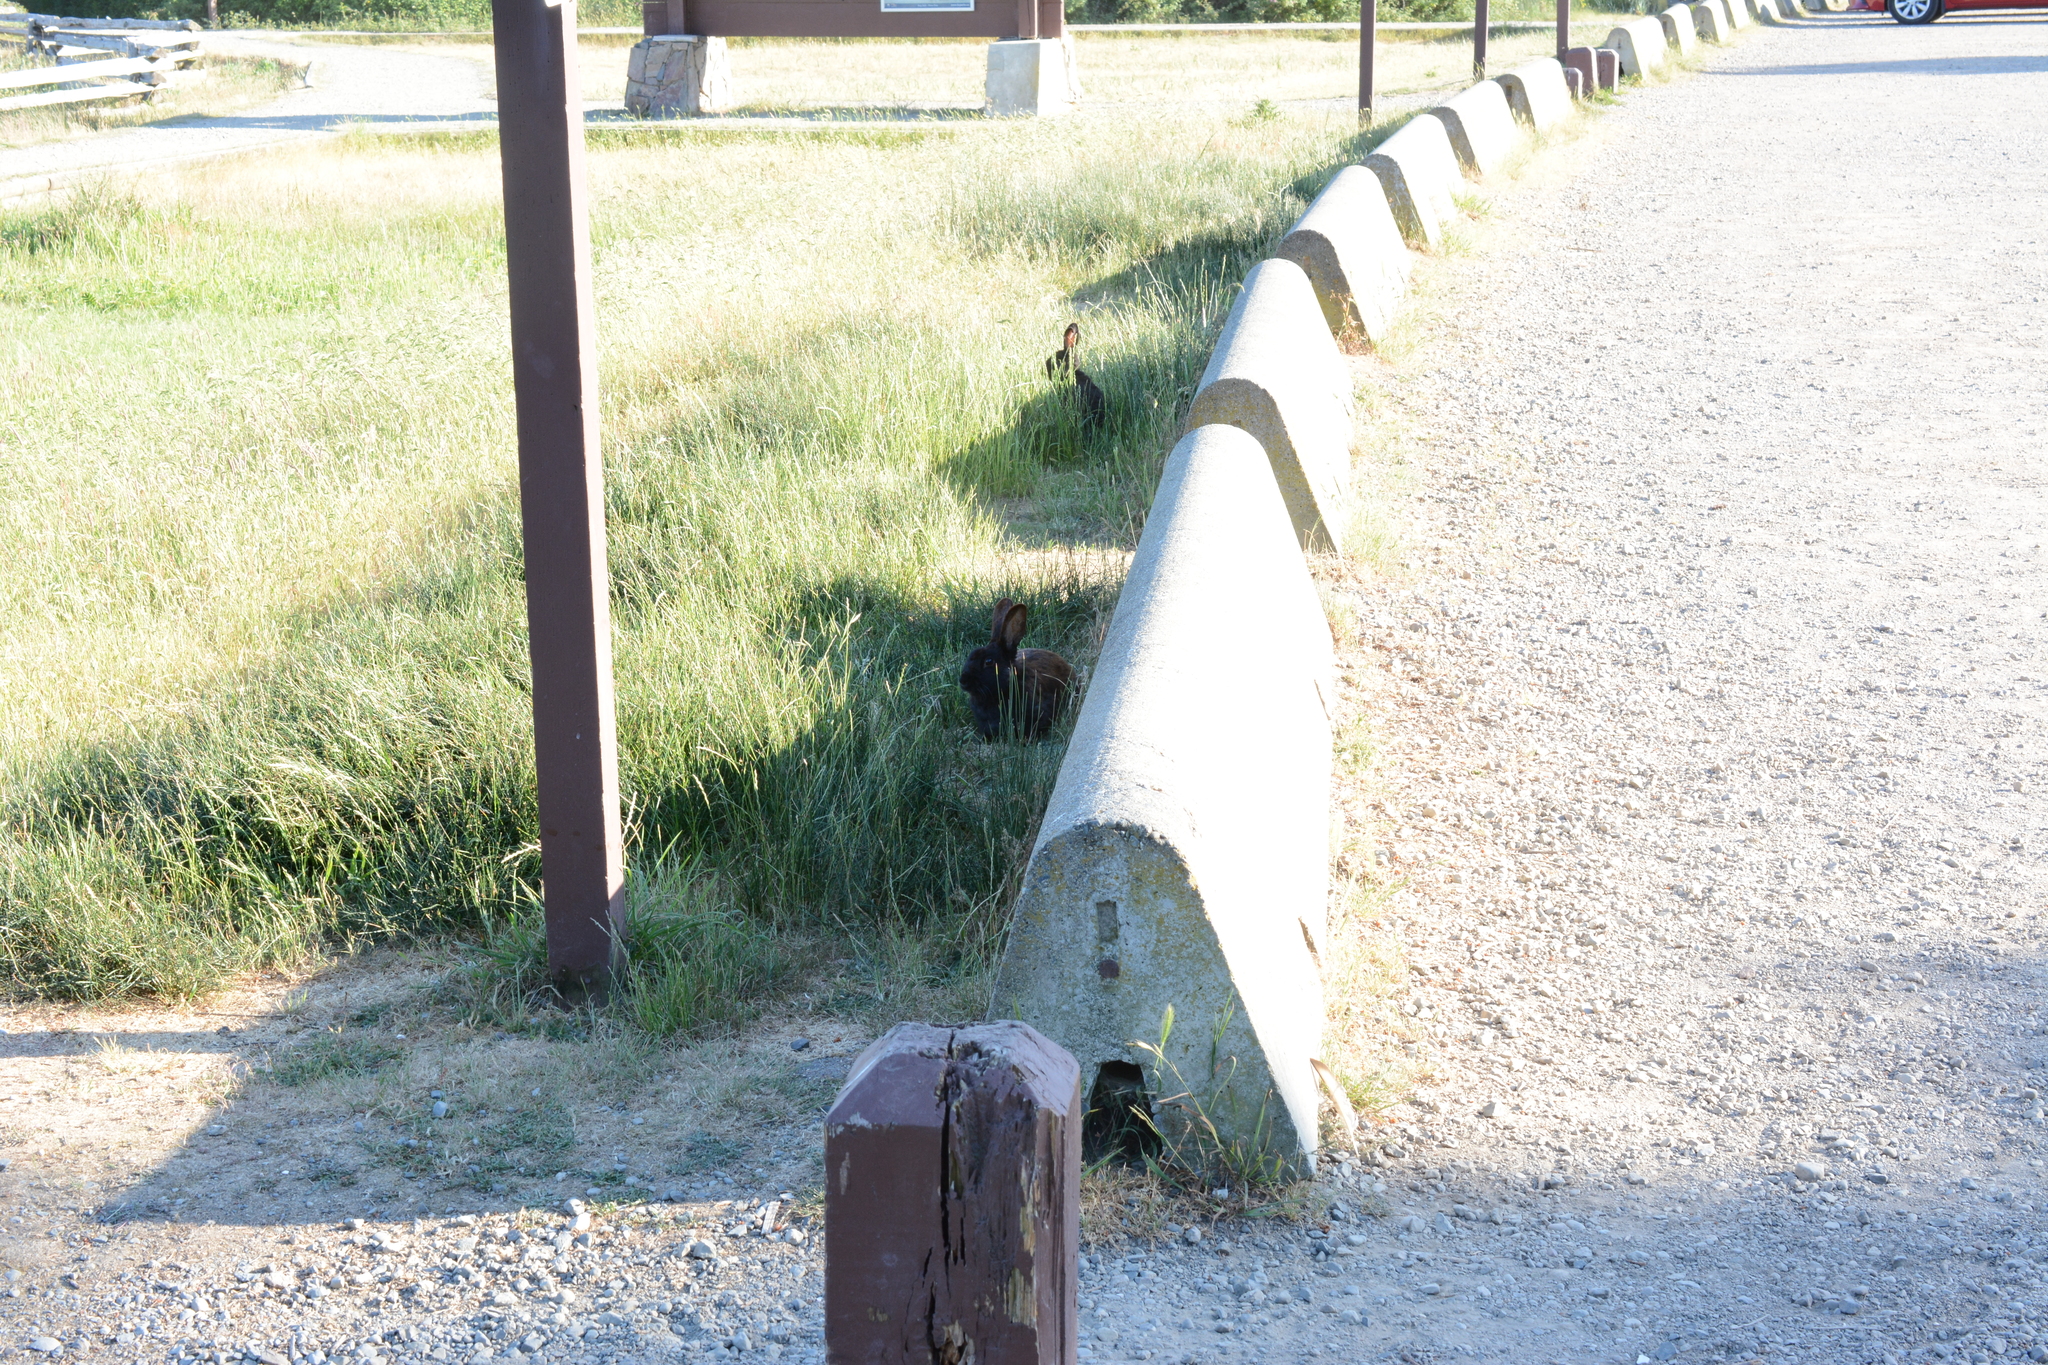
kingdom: Animalia
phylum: Chordata
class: Mammalia
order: Lagomorpha
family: Leporidae
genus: Oryctolagus
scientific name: Oryctolagus cuniculus
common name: European rabbit
